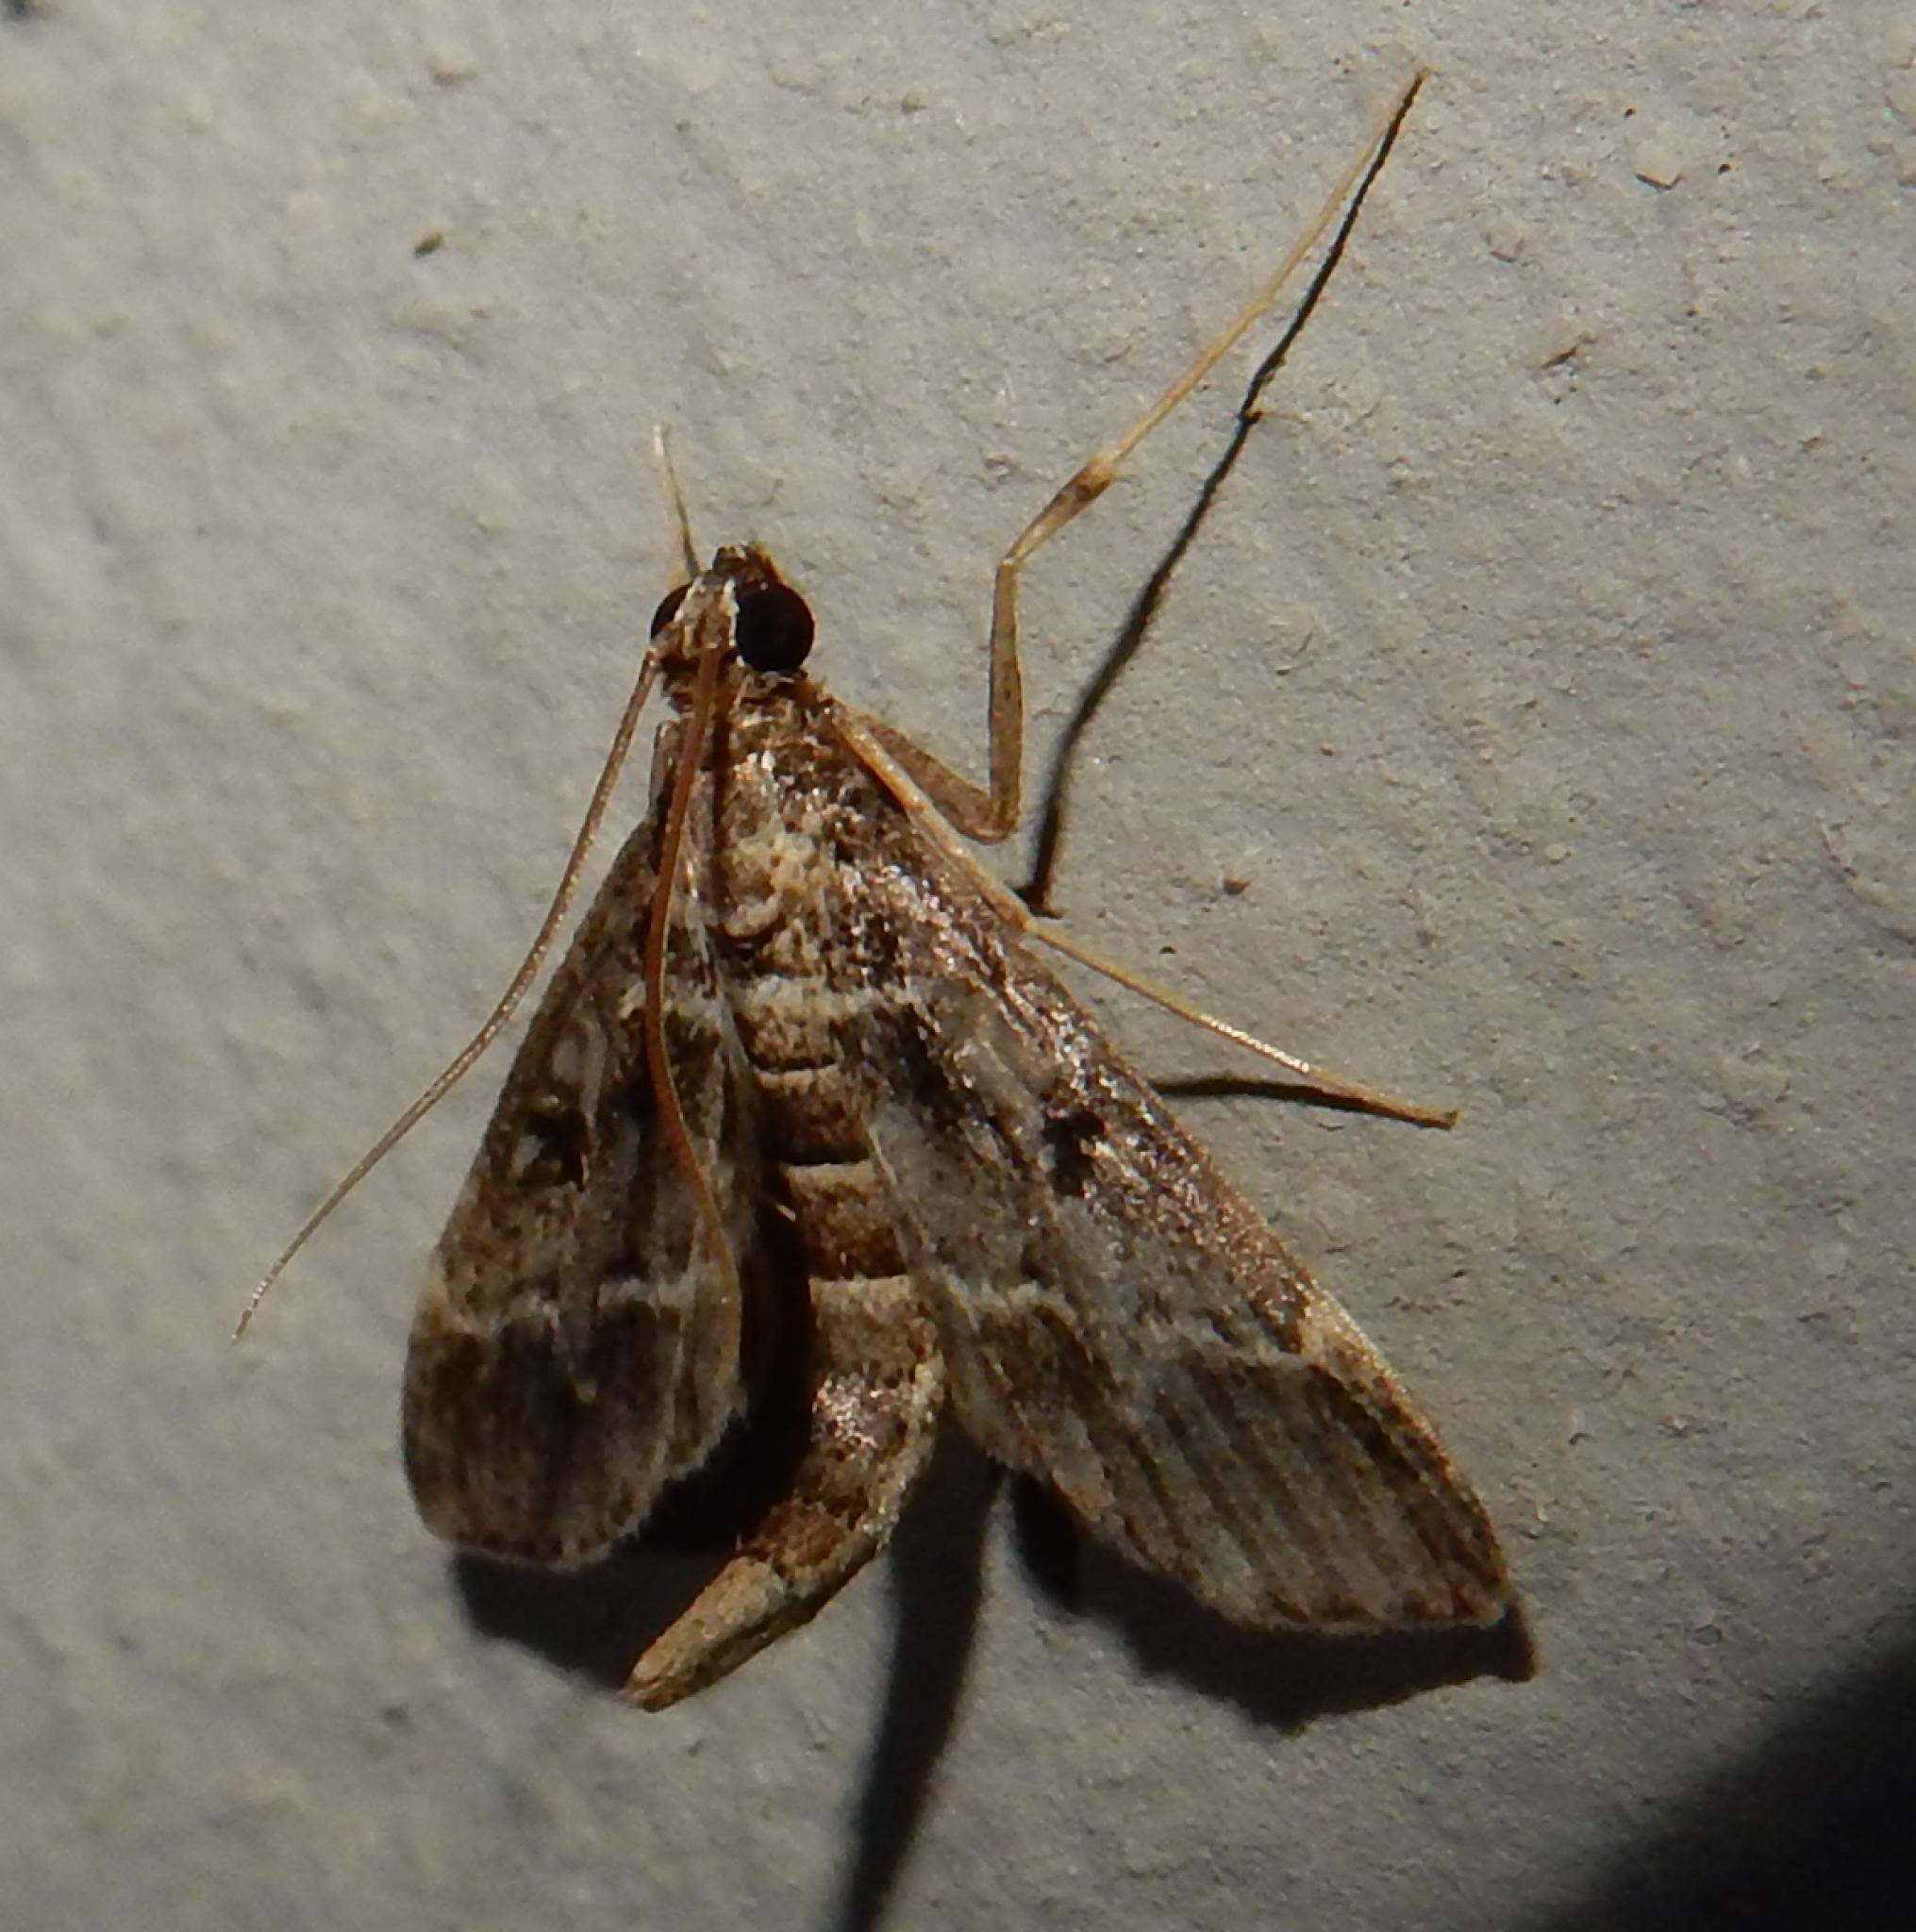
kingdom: Animalia
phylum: Arthropoda
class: Insecta
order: Lepidoptera
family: Crambidae
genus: Duponchelia
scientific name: Duponchelia fovealis
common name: Crambid moth
